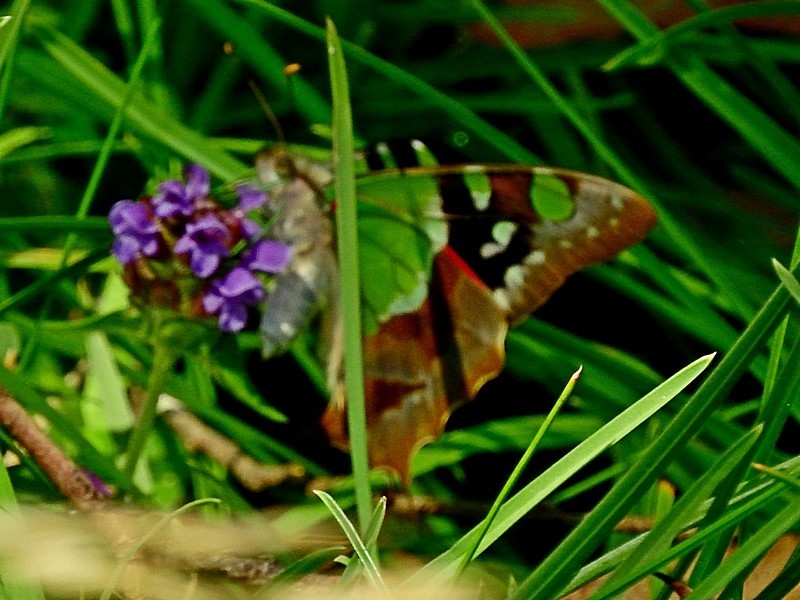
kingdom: Animalia
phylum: Arthropoda
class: Insecta
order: Lepidoptera
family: Papilionidae
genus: Graphium
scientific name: Graphium macleayanus
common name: Macleay's swallowtail
